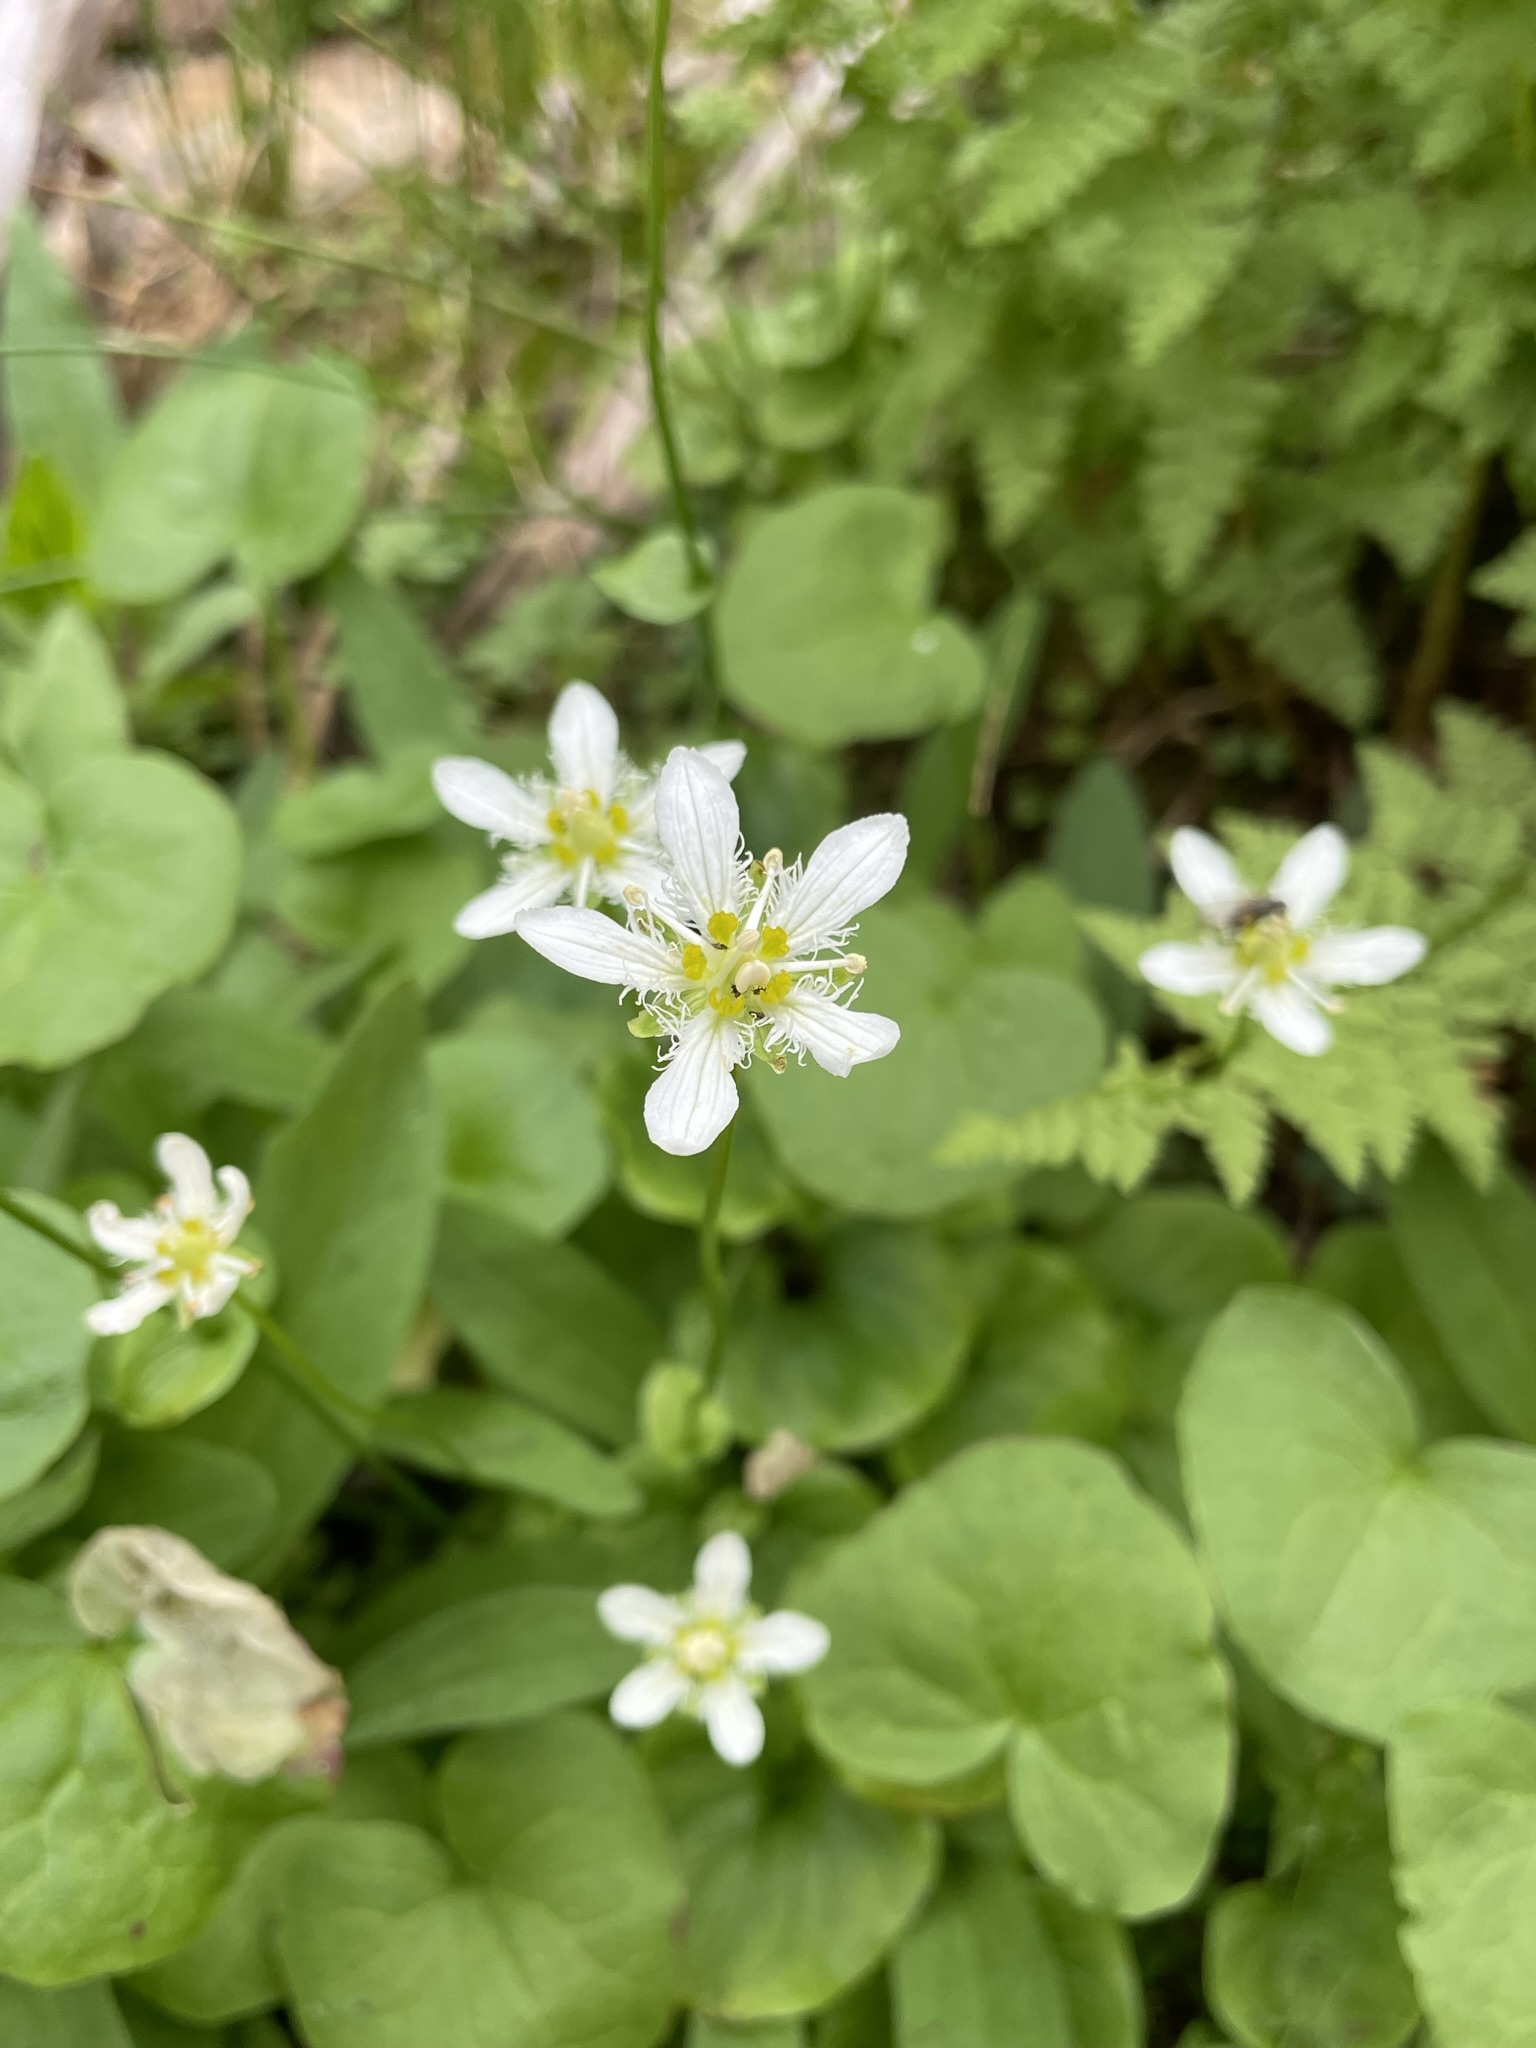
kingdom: Plantae
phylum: Tracheophyta
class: Magnoliopsida
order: Celastrales
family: Parnassiaceae
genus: Parnassia
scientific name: Parnassia fimbriata
